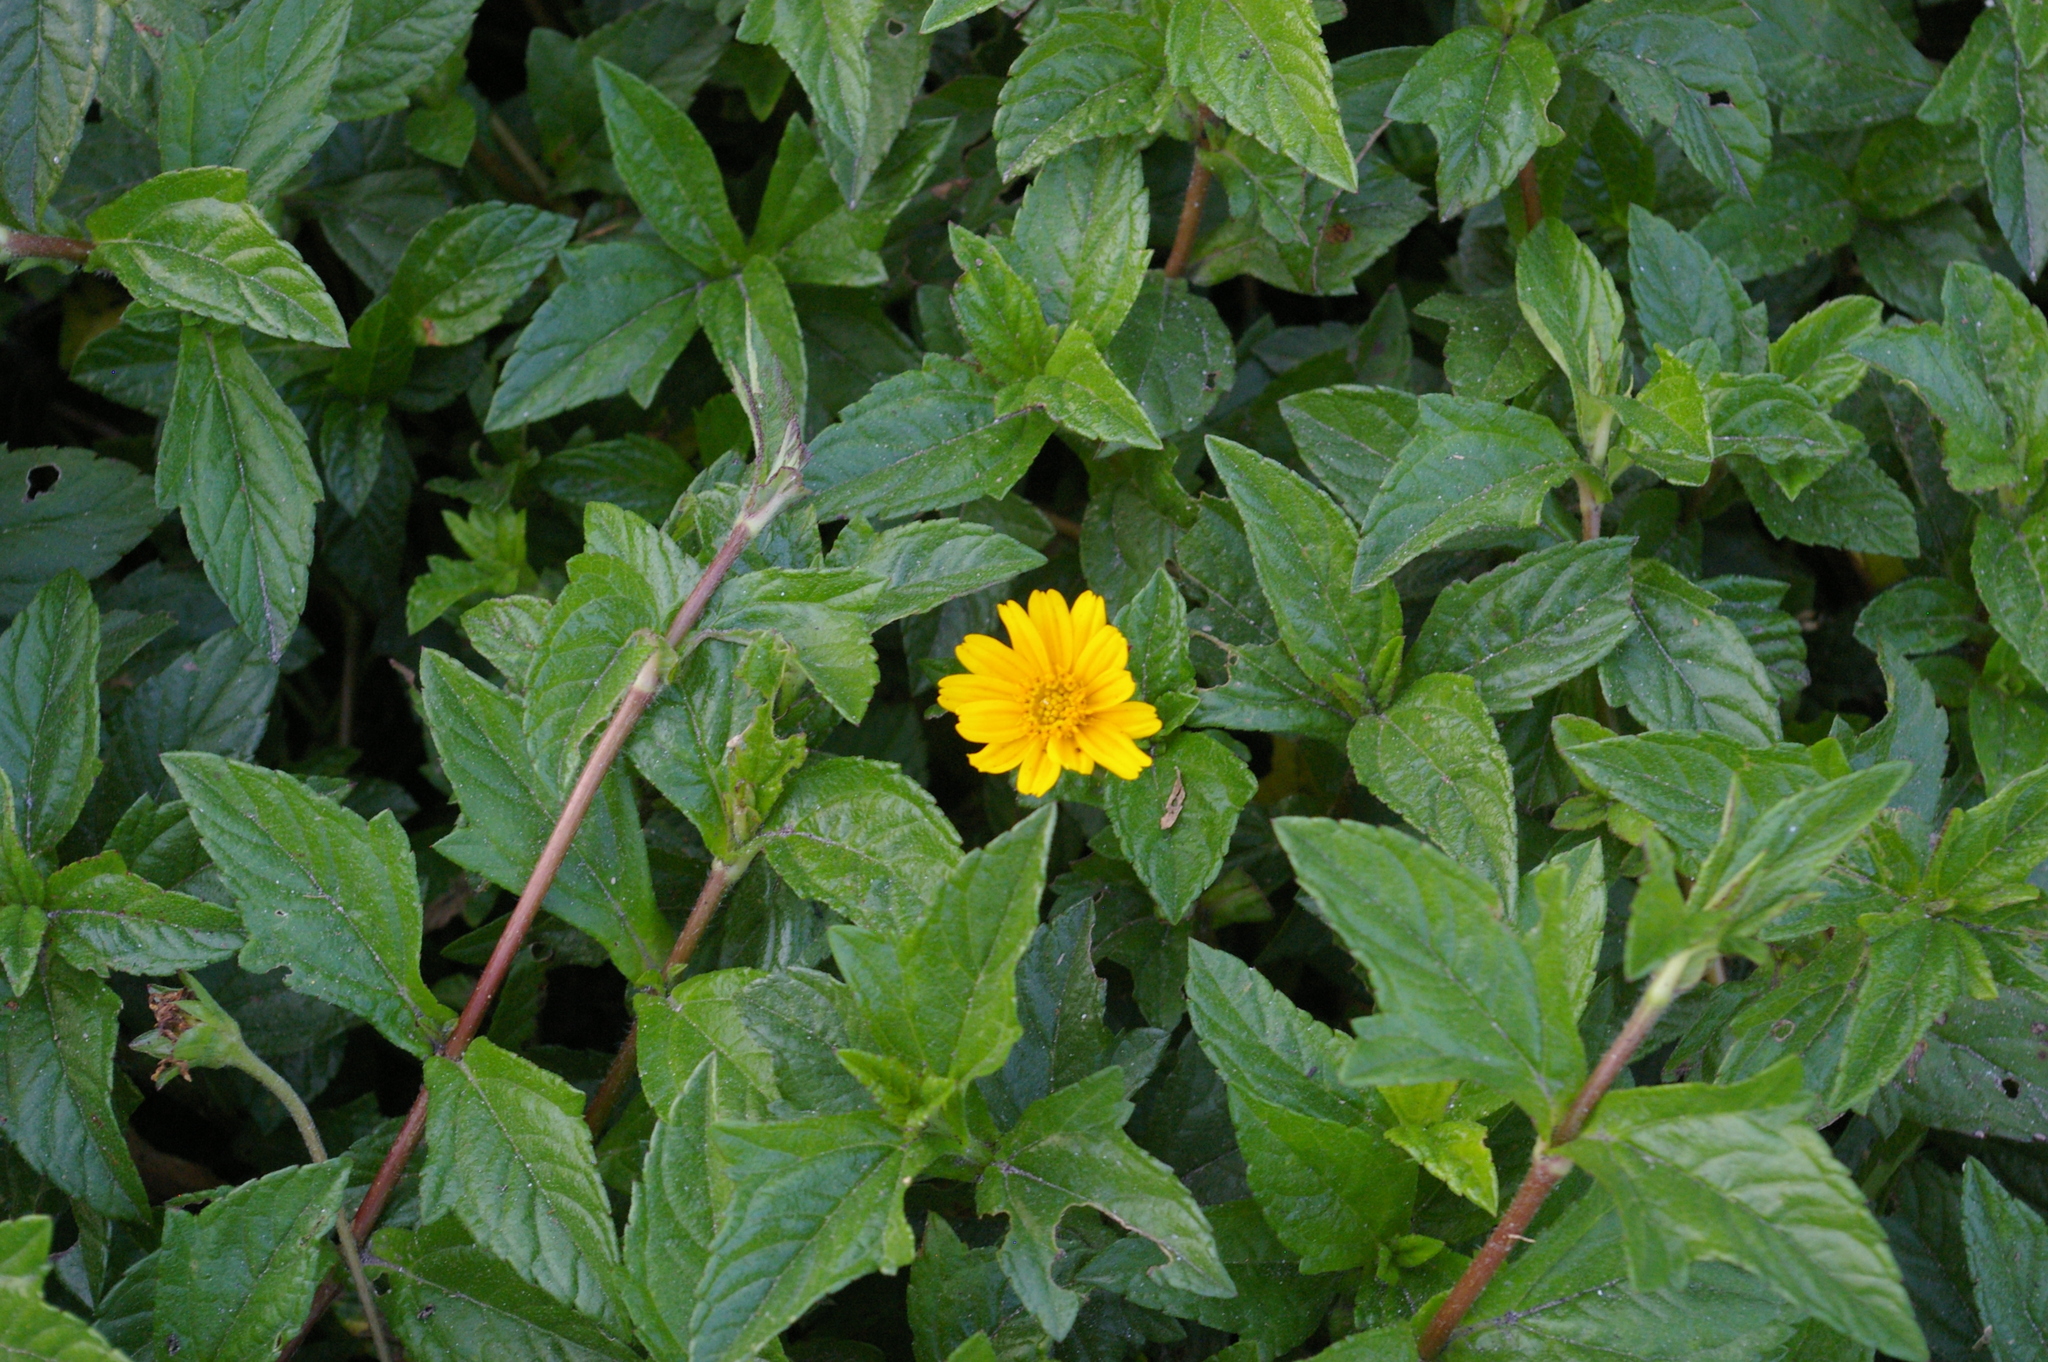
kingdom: Plantae
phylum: Tracheophyta
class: Magnoliopsida
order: Asterales
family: Asteraceae
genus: Sphagneticola
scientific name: Sphagneticola trilobata
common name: Bay biscayne creeping-oxeye
